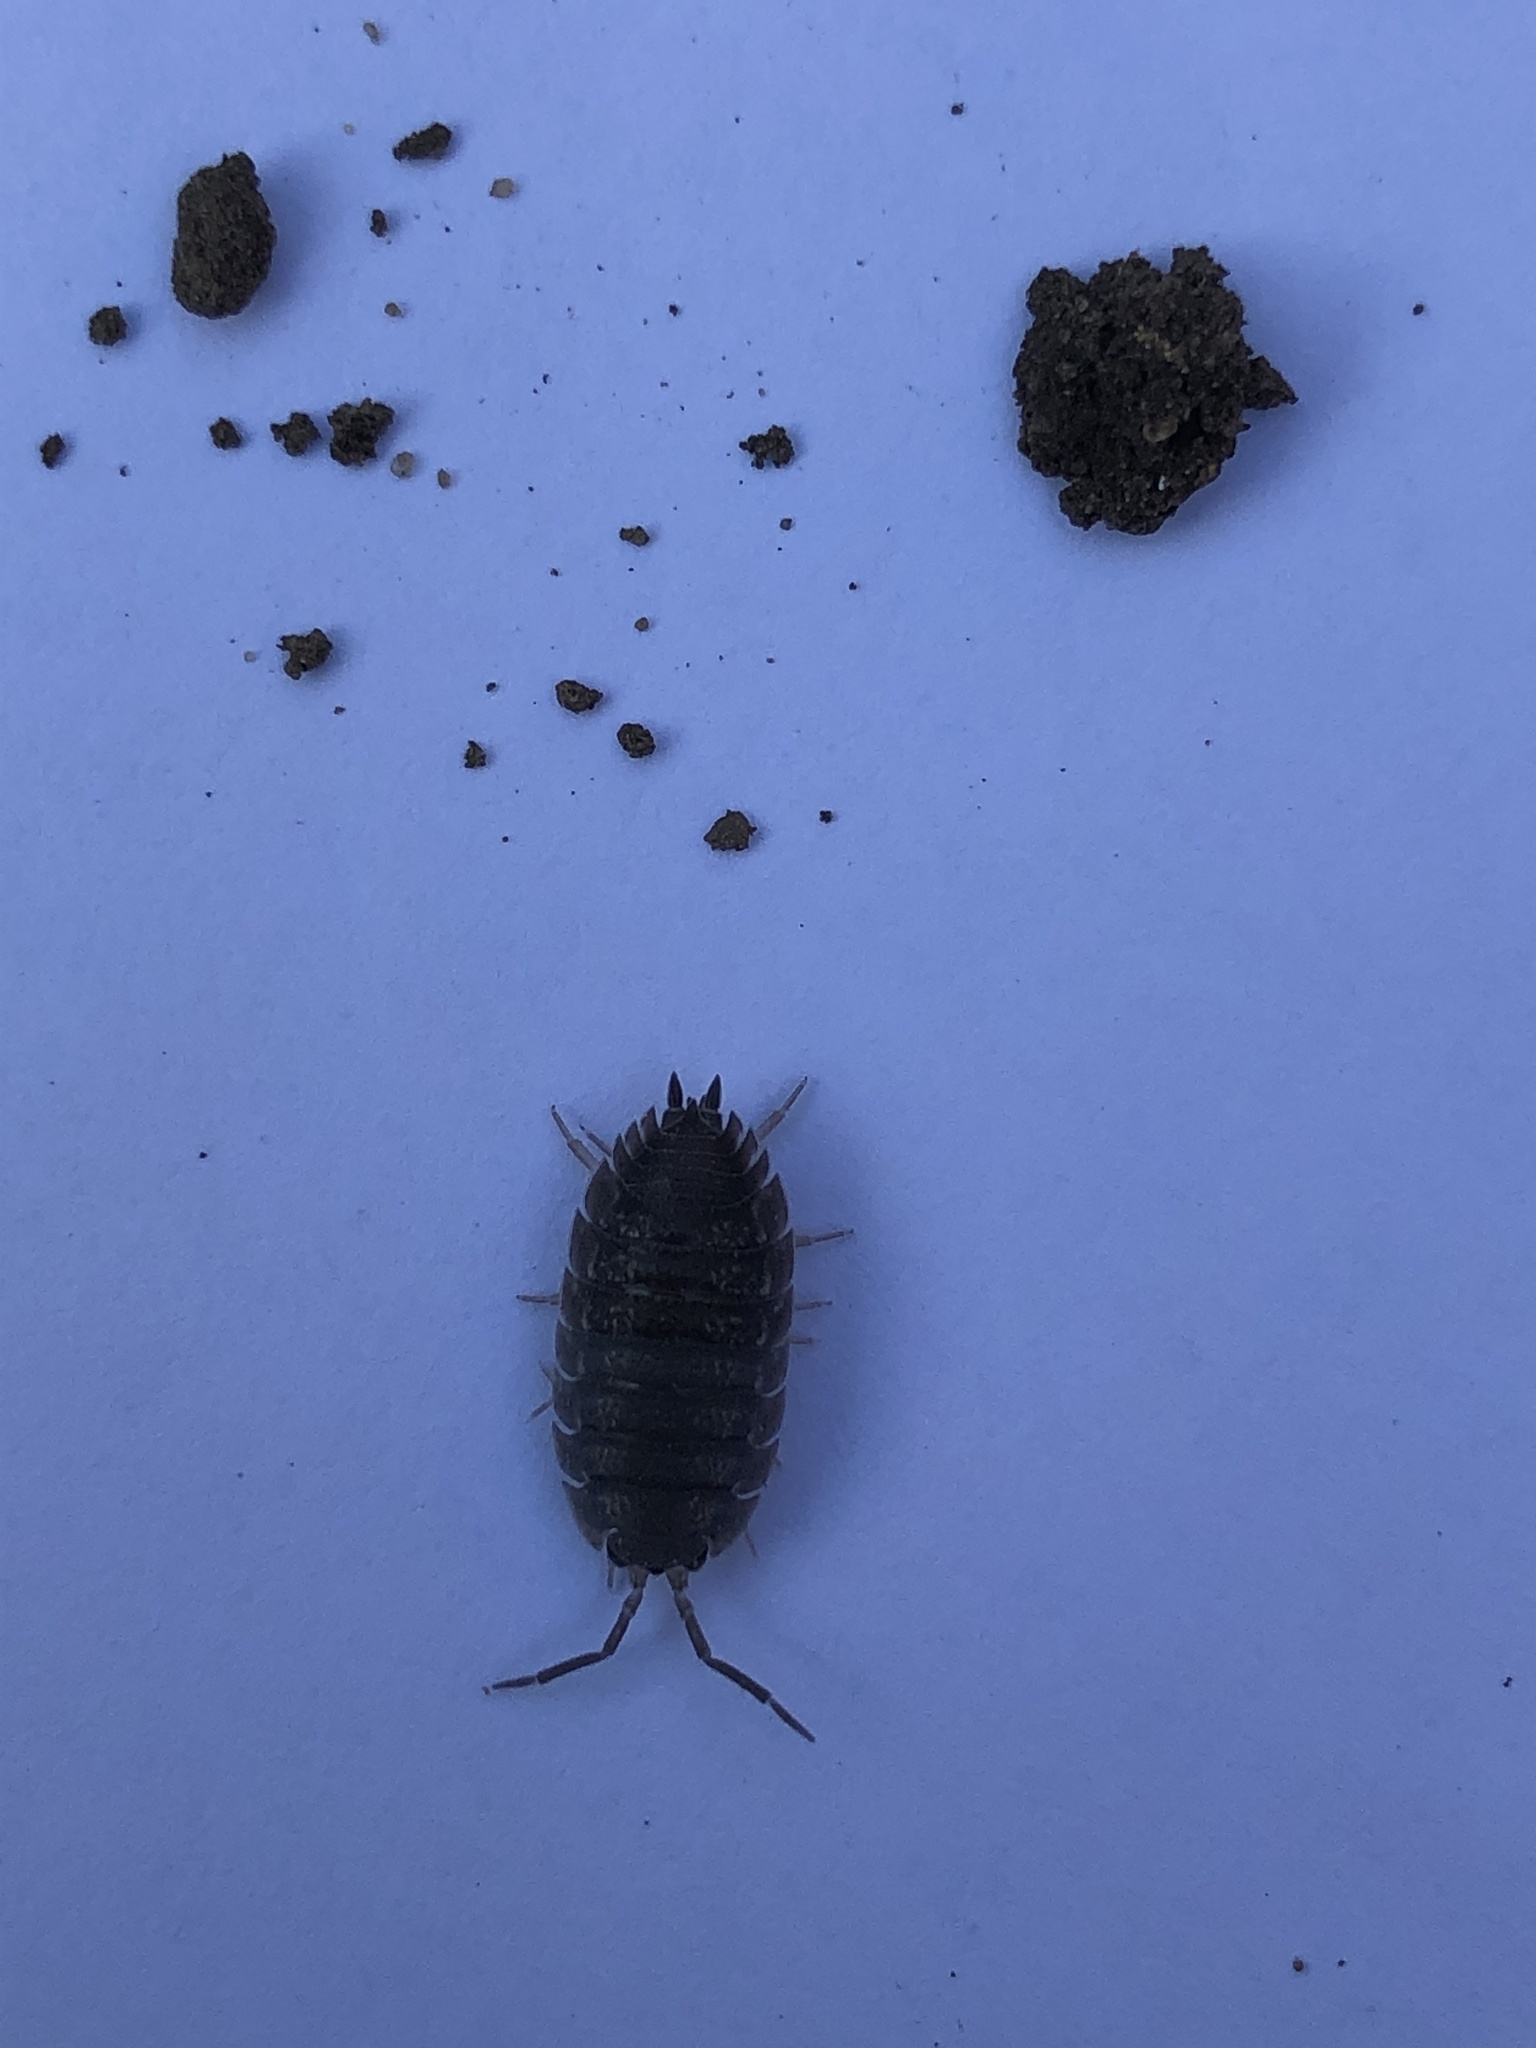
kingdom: Animalia
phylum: Arthropoda
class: Malacostraca
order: Isopoda
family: Porcellionidae
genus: Porcellio
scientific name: Porcellio scaber
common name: Common rough woodlouse
